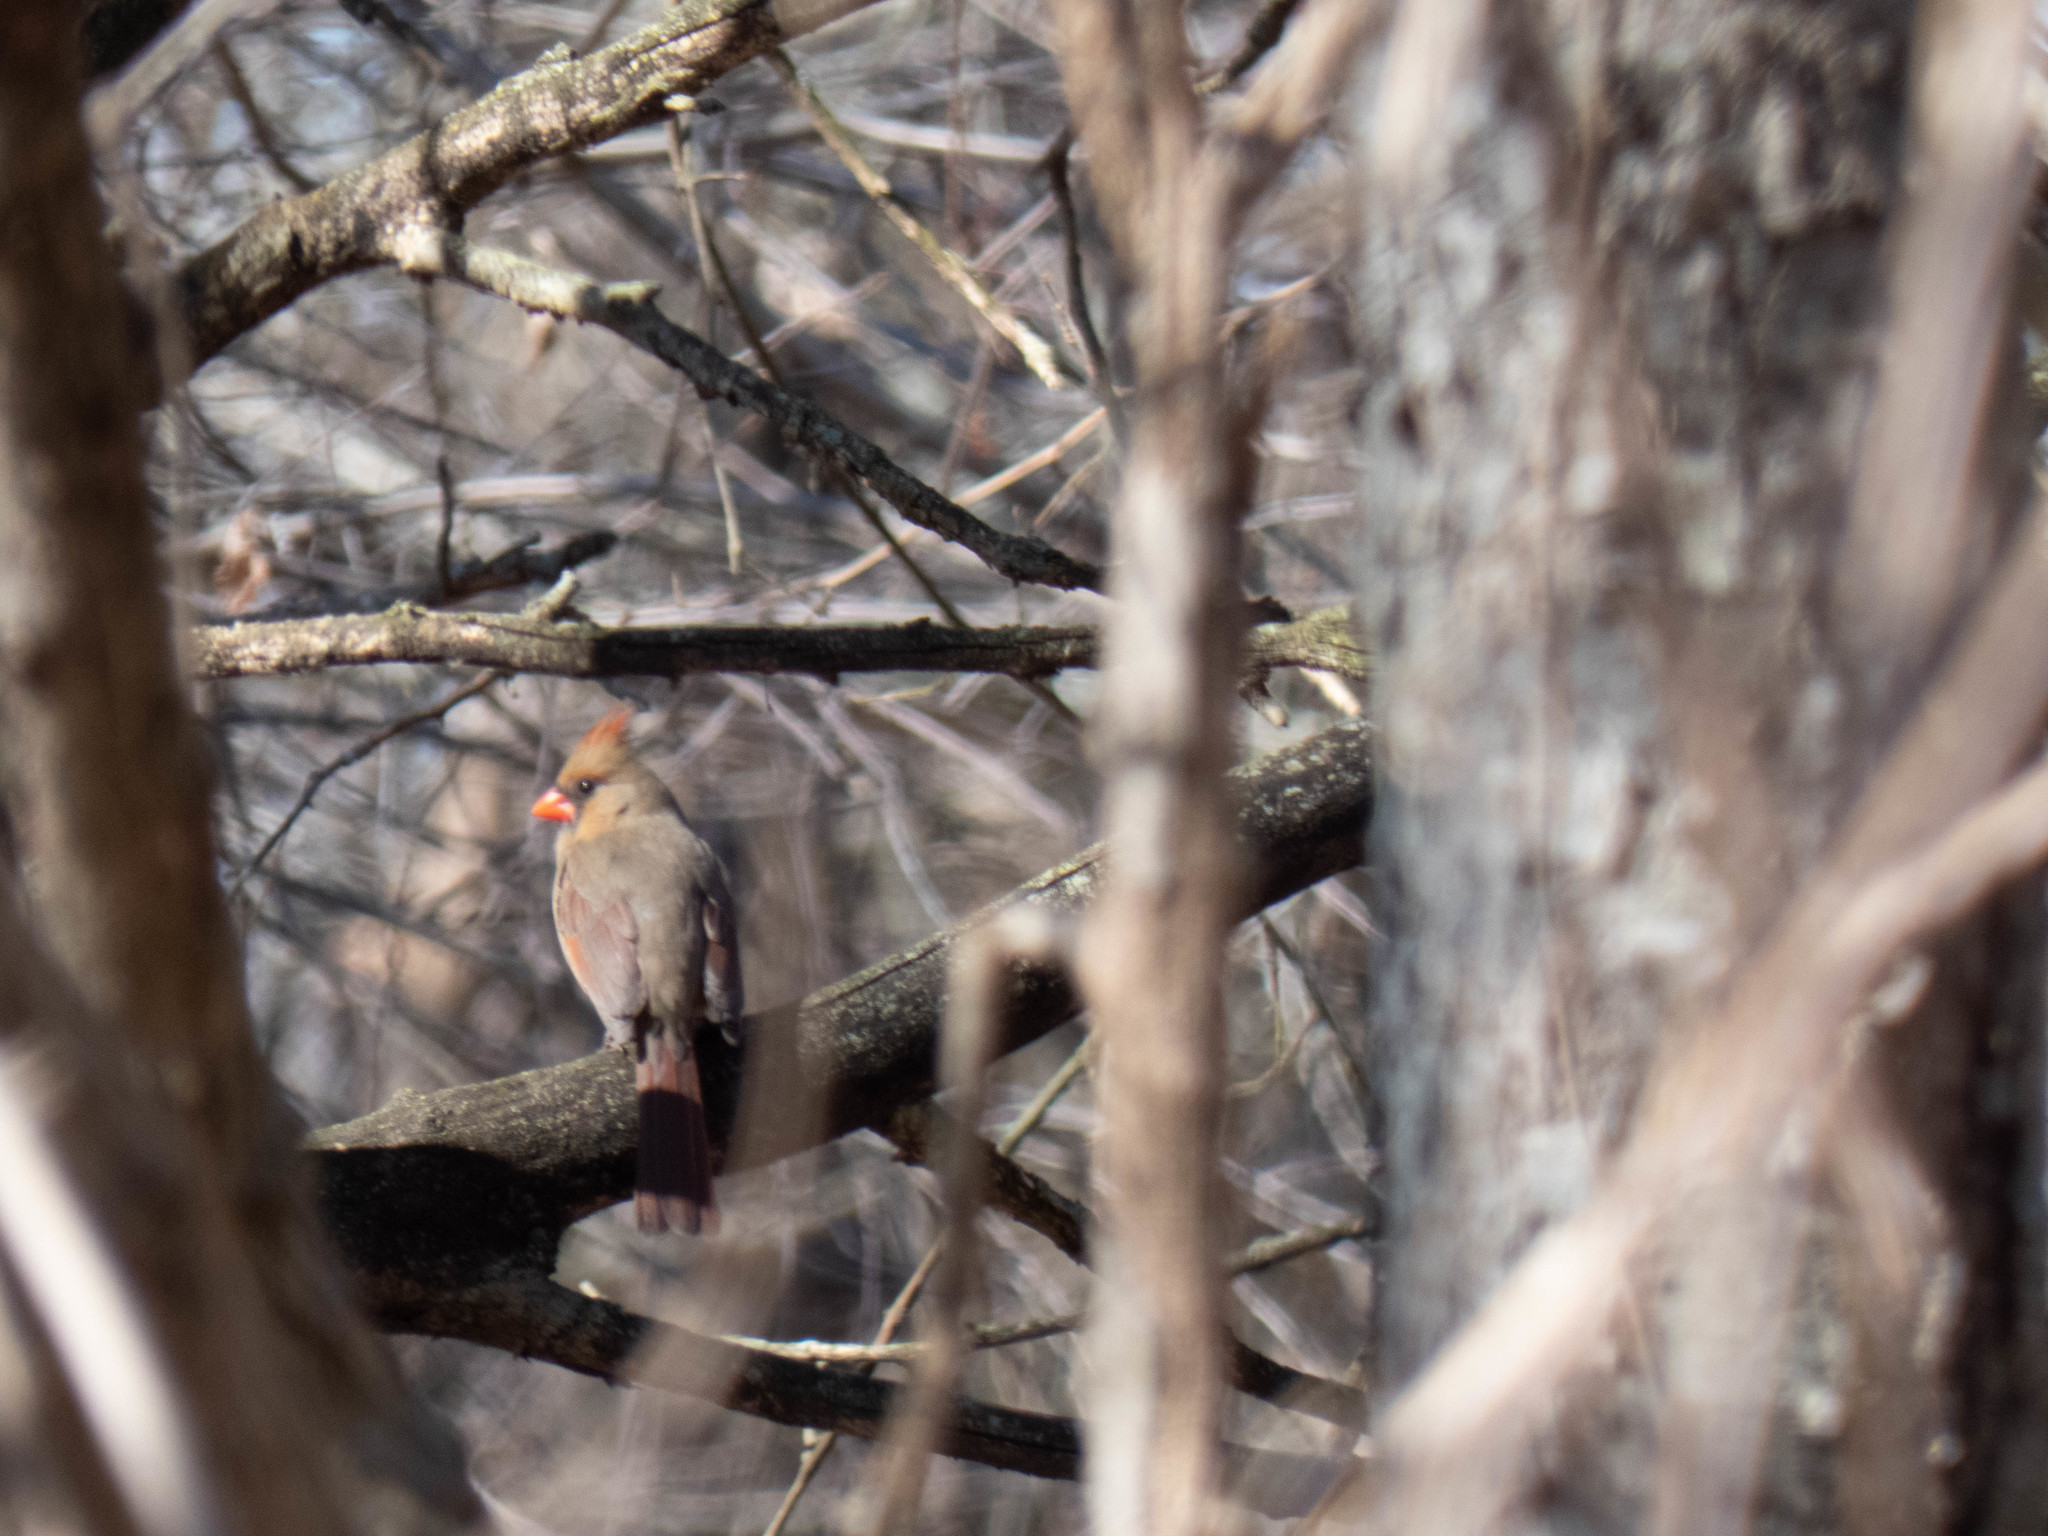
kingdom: Animalia
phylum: Chordata
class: Aves
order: Passeriformes
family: Cardinalidae
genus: Cardinalis
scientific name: Cardinalis cardinalis
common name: Northern cardinal
